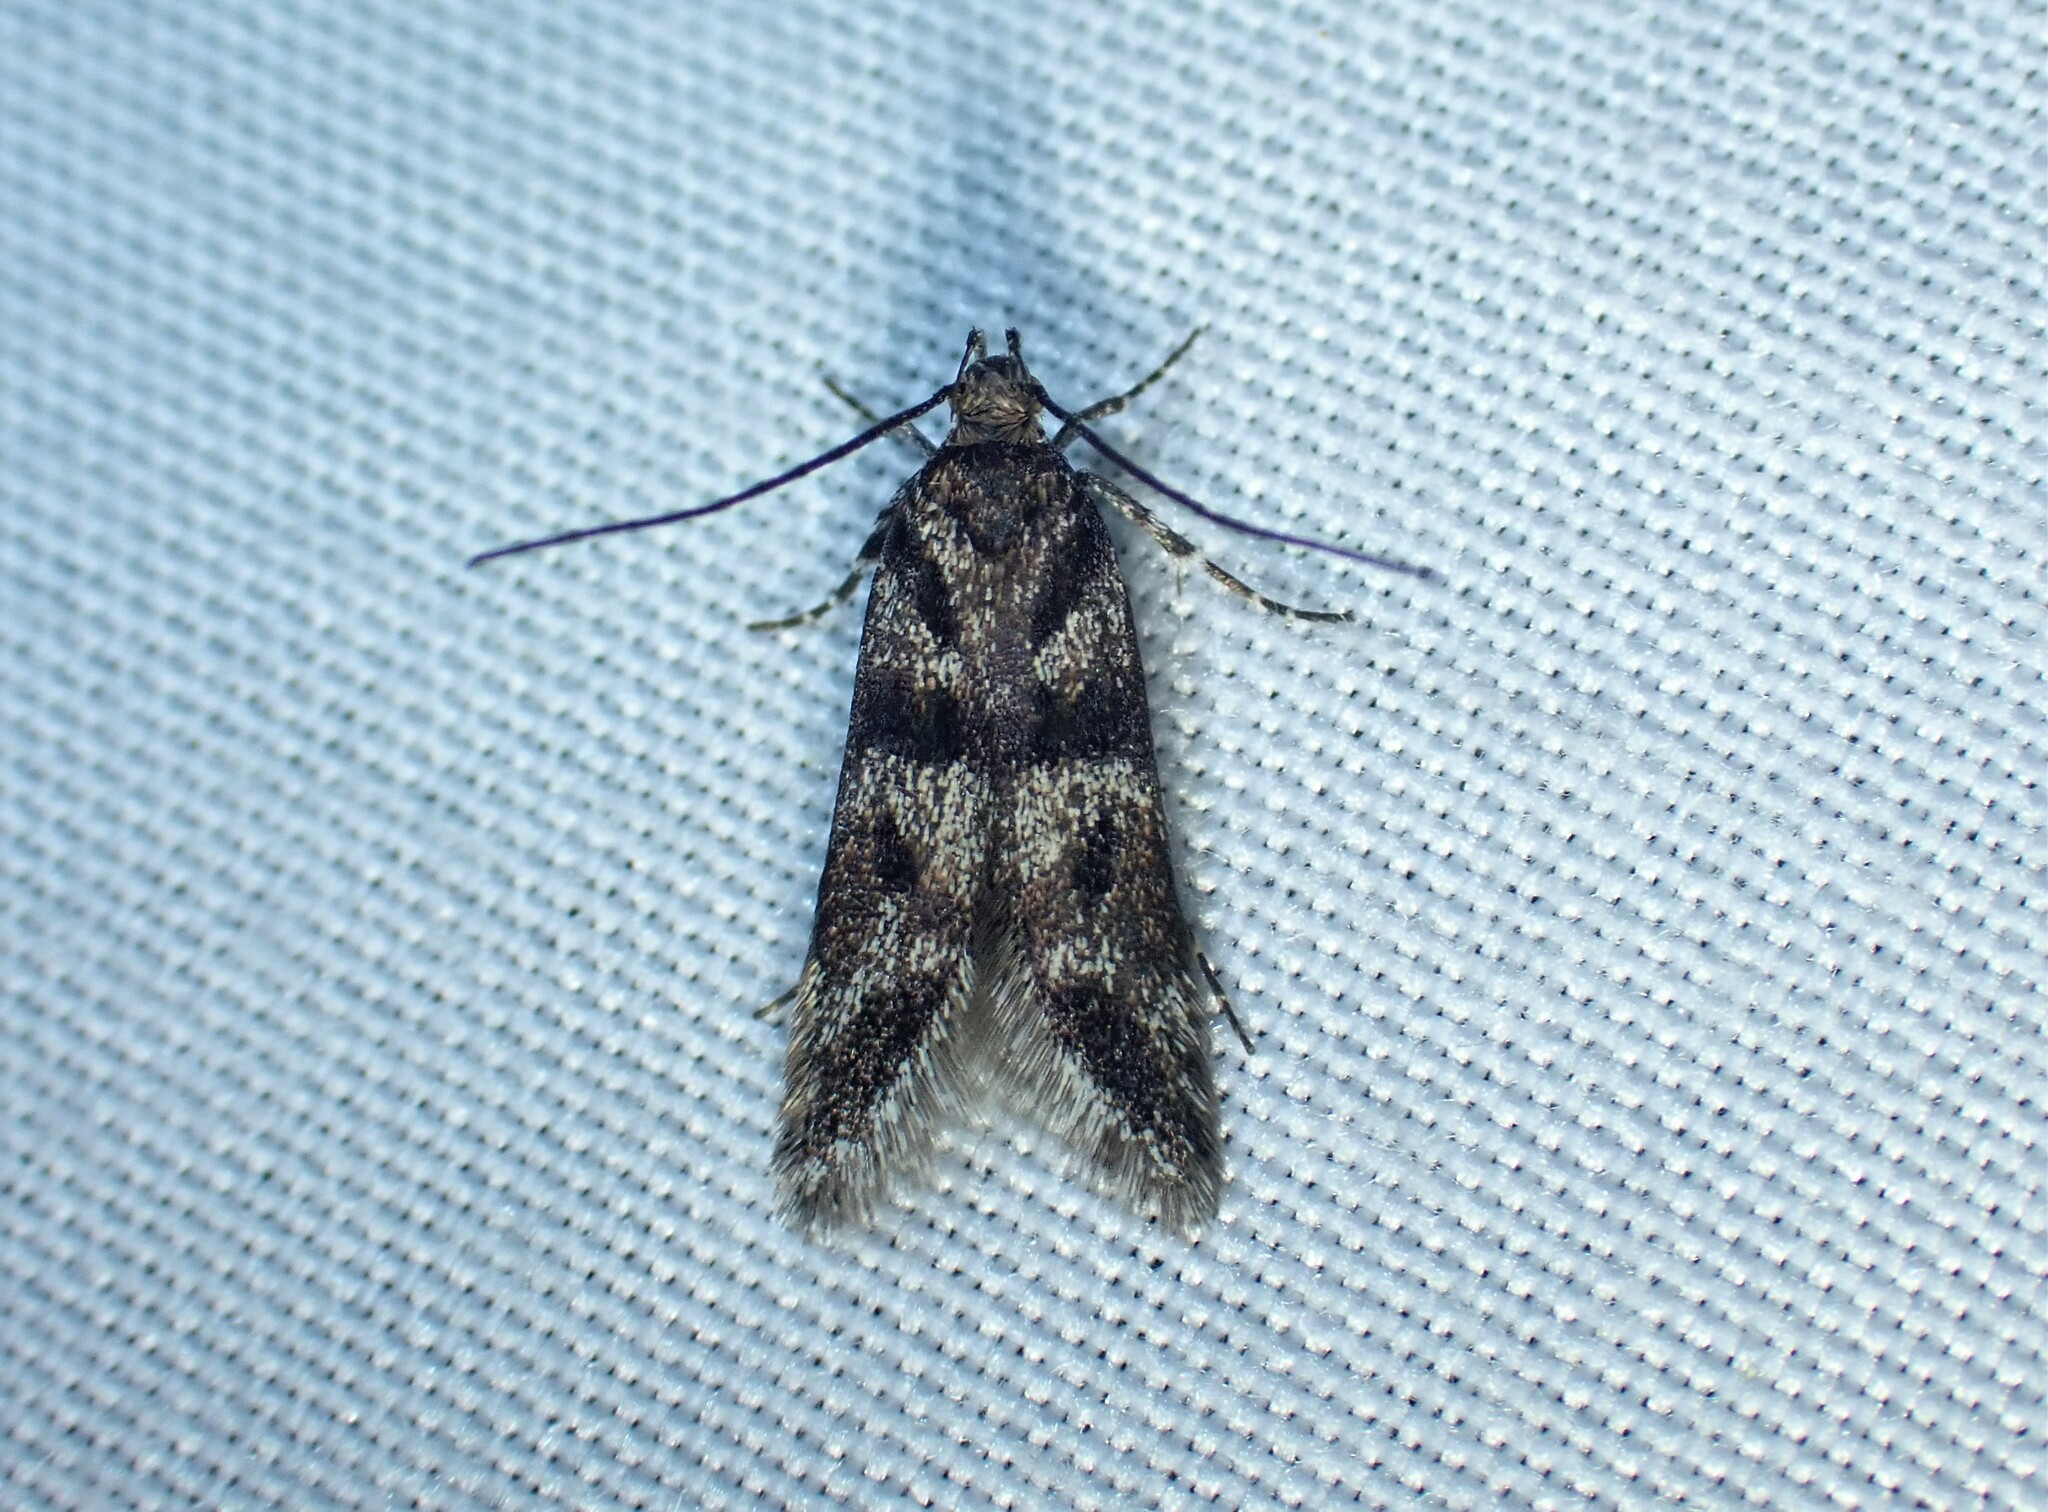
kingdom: Animalia
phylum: Arthropoda
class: Insecta
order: Lepidoptera
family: Gelechiidae
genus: Prolita
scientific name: Prolita sexpunctella
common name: Six-spot groundling
